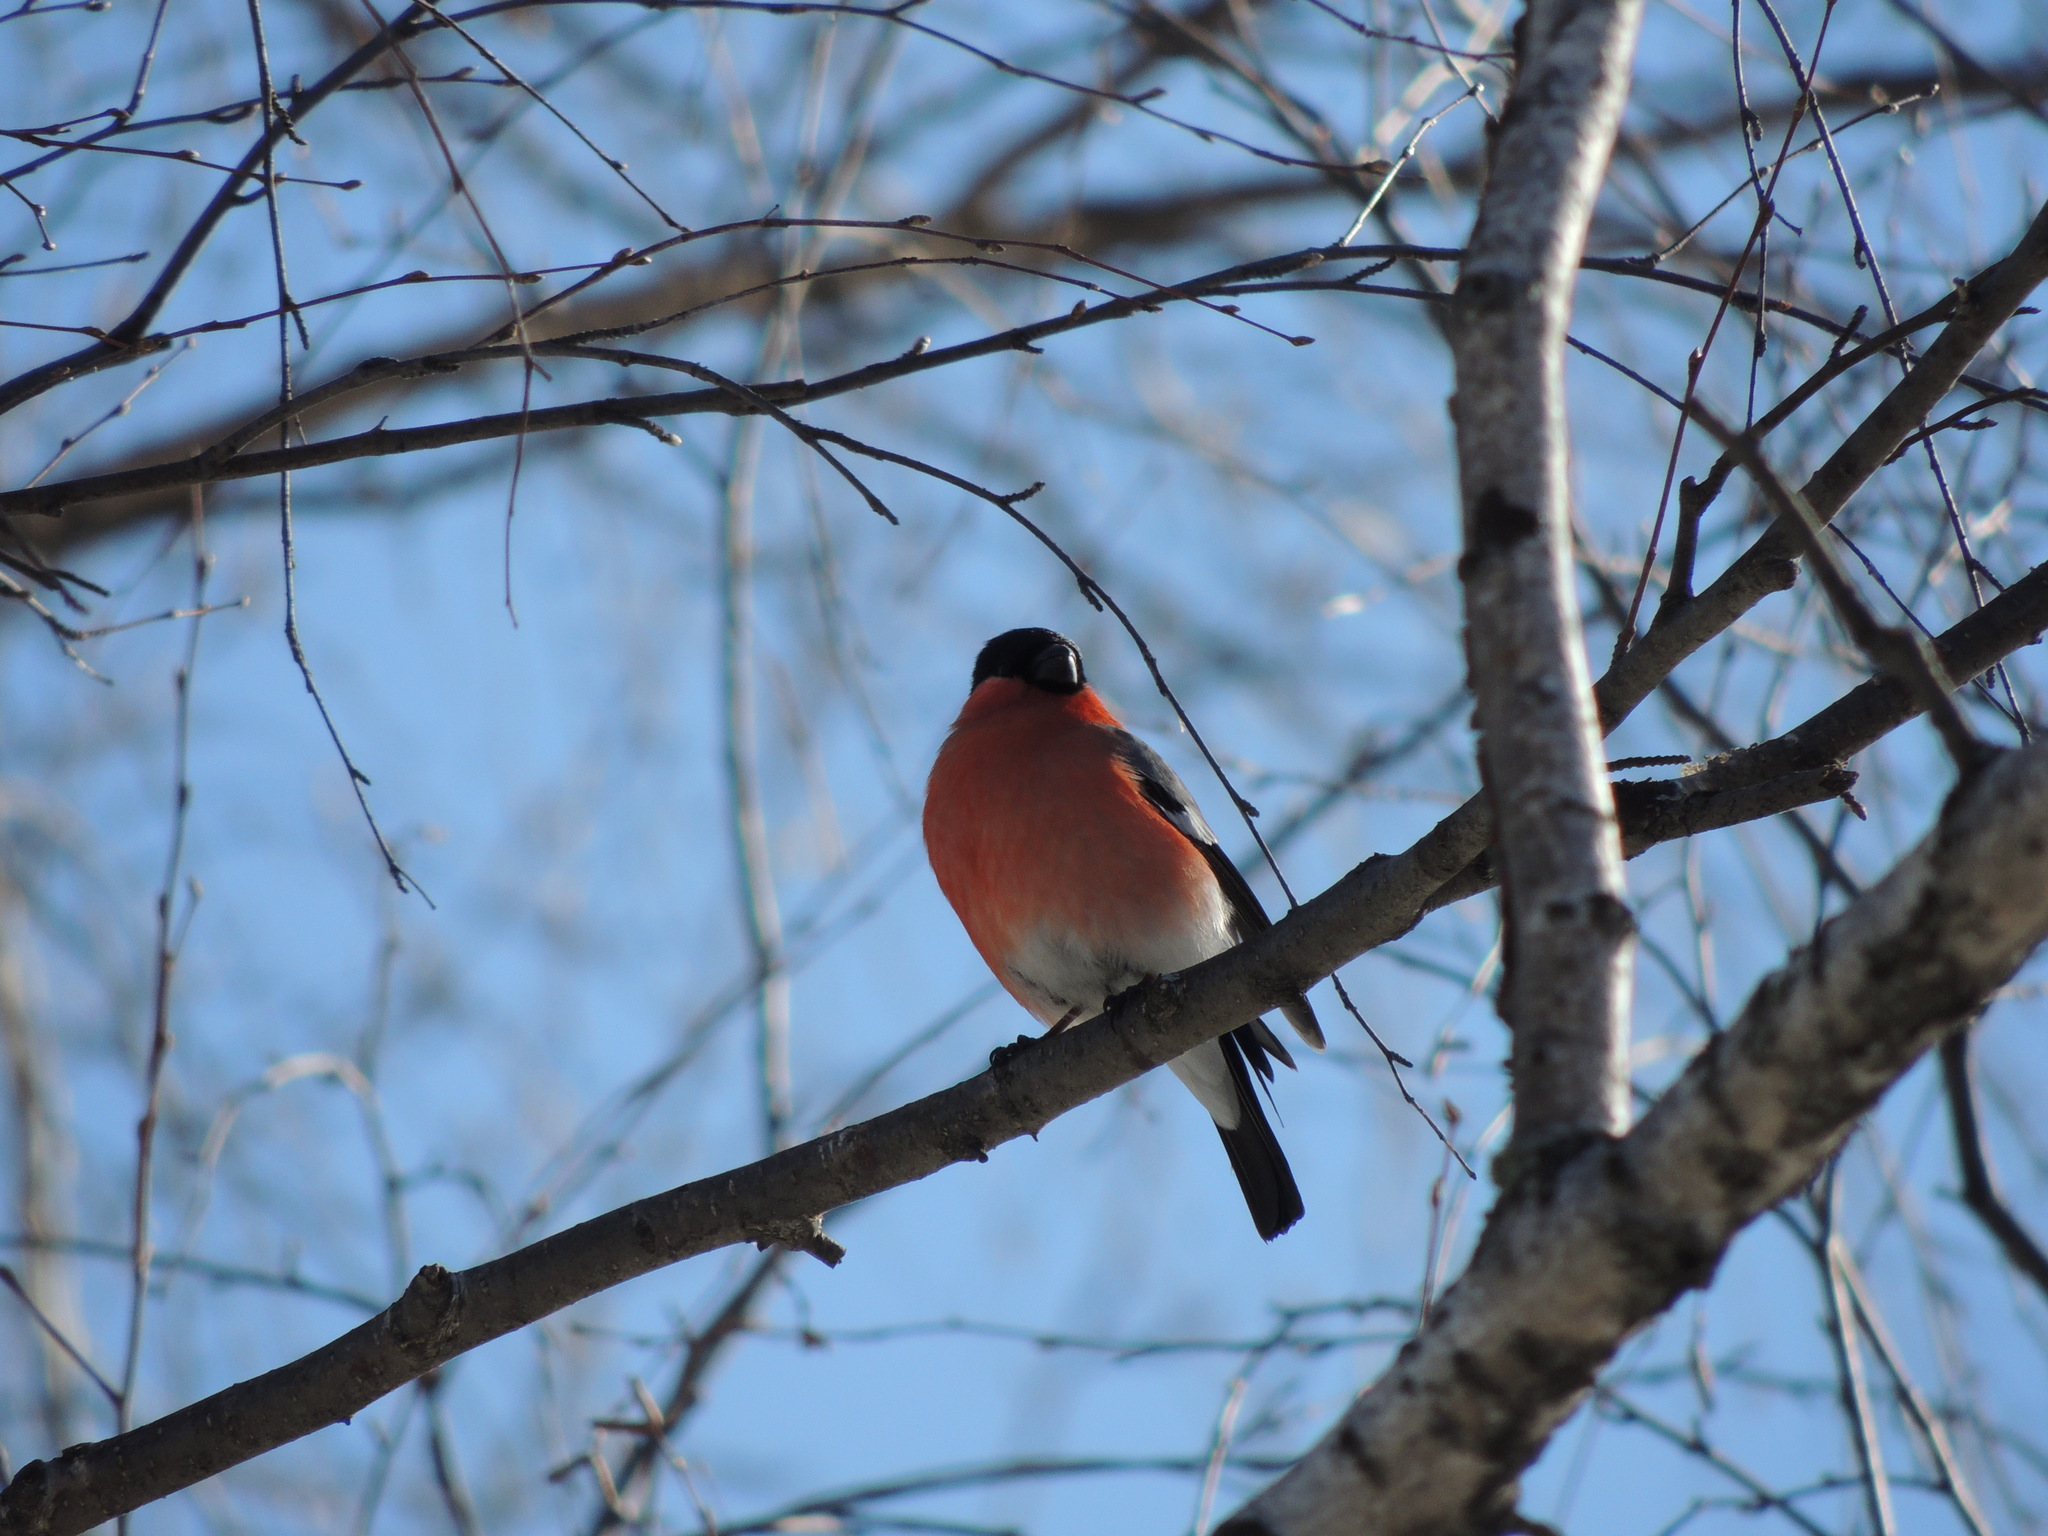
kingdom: Animalia
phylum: Chordata
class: Aves
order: Passeriformes
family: Fringillidae
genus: Pyrrhula
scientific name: Pyrrhula pyrrhula
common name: Eurasian bullfinch
